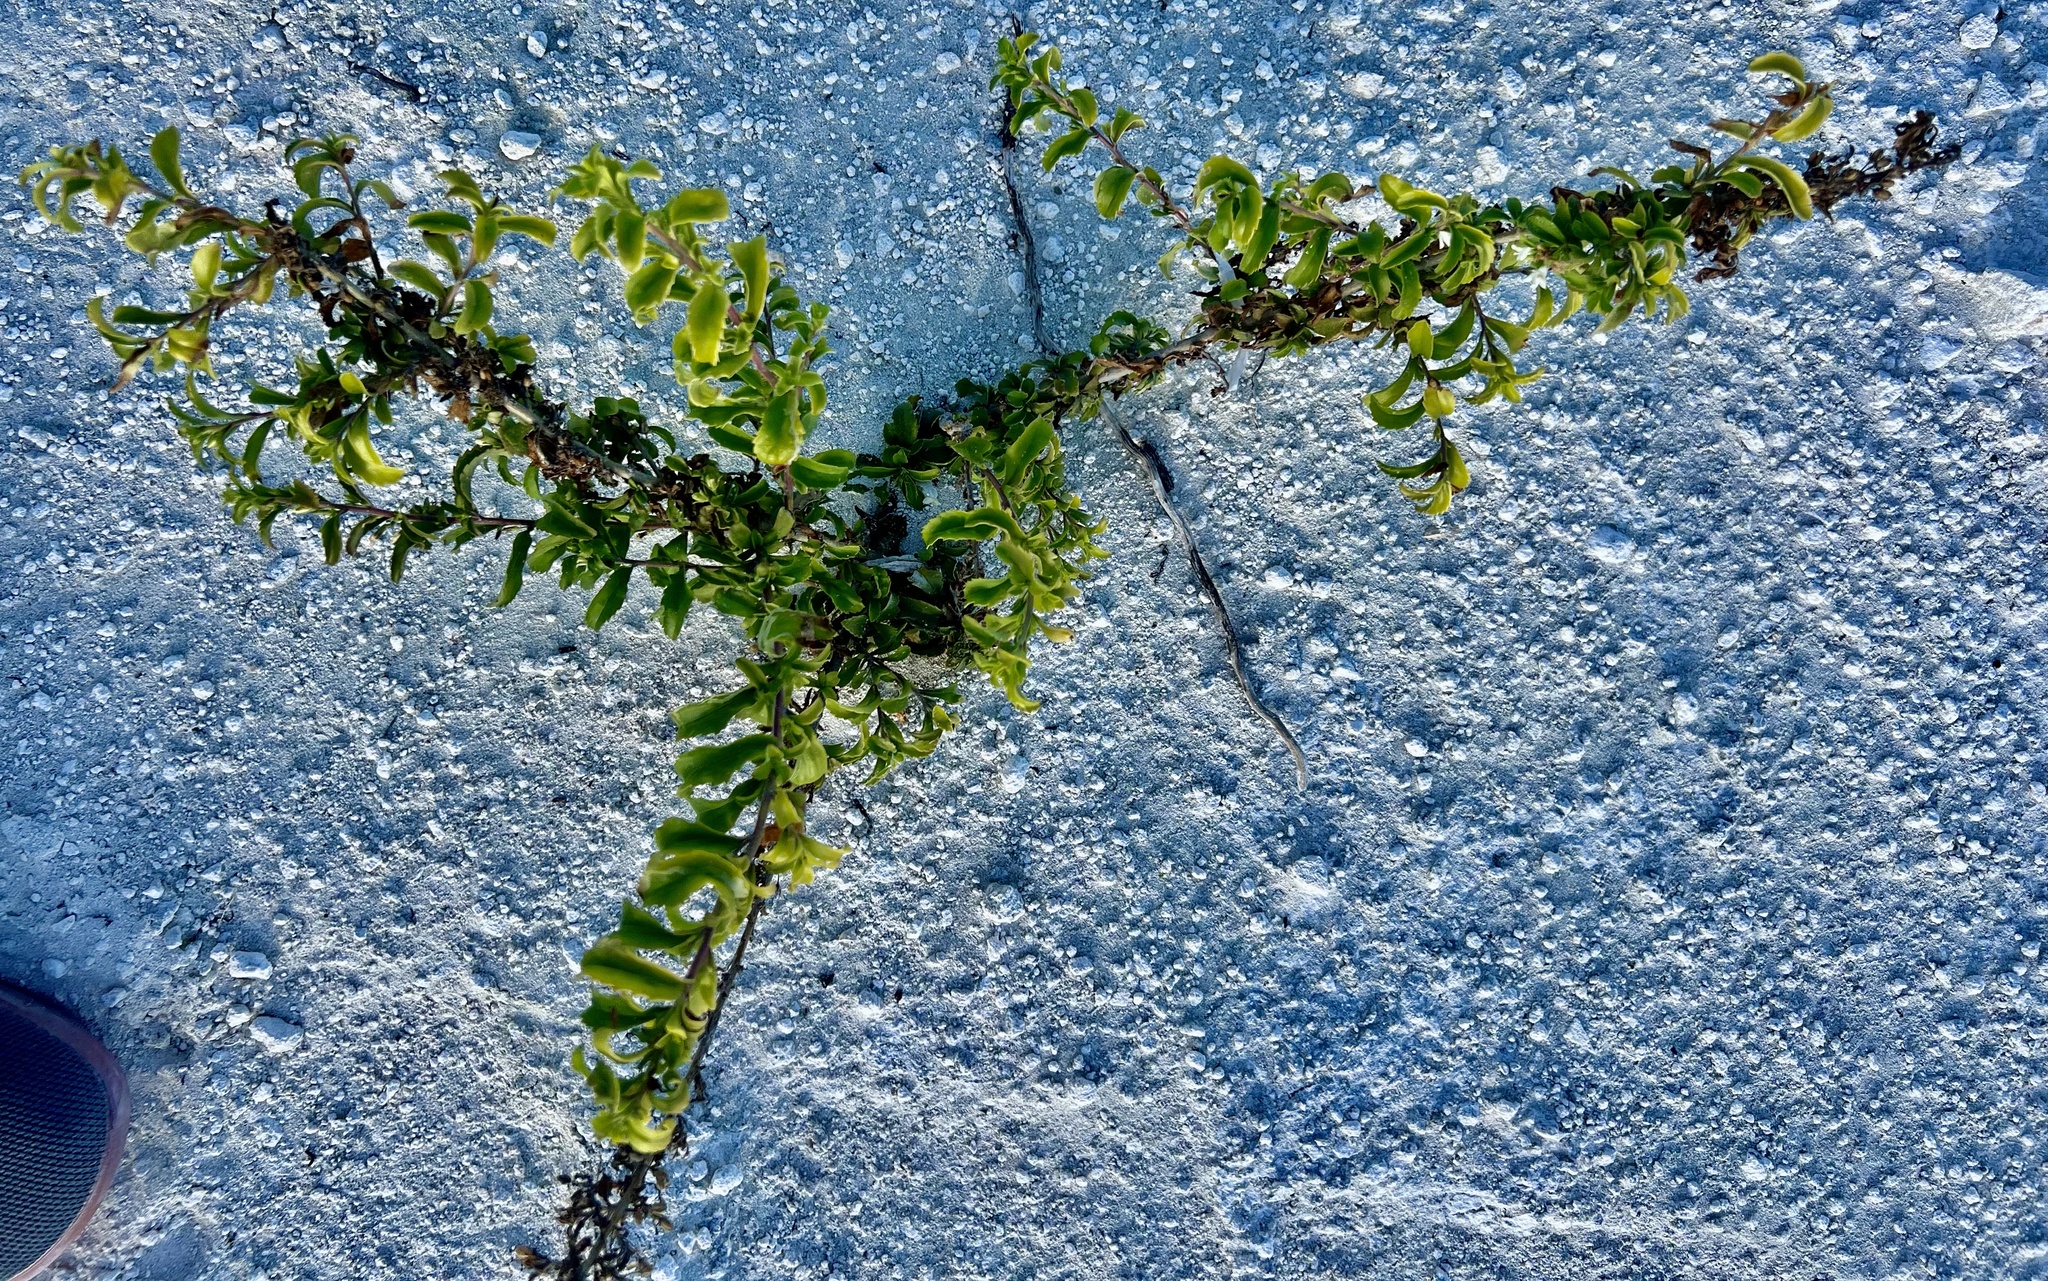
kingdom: Plantae
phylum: Tracheophyta
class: Magnoliopsida
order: Lamiales
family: Scrophulariaceae
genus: Capraria
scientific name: Capraria biflora
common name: Goatweed
